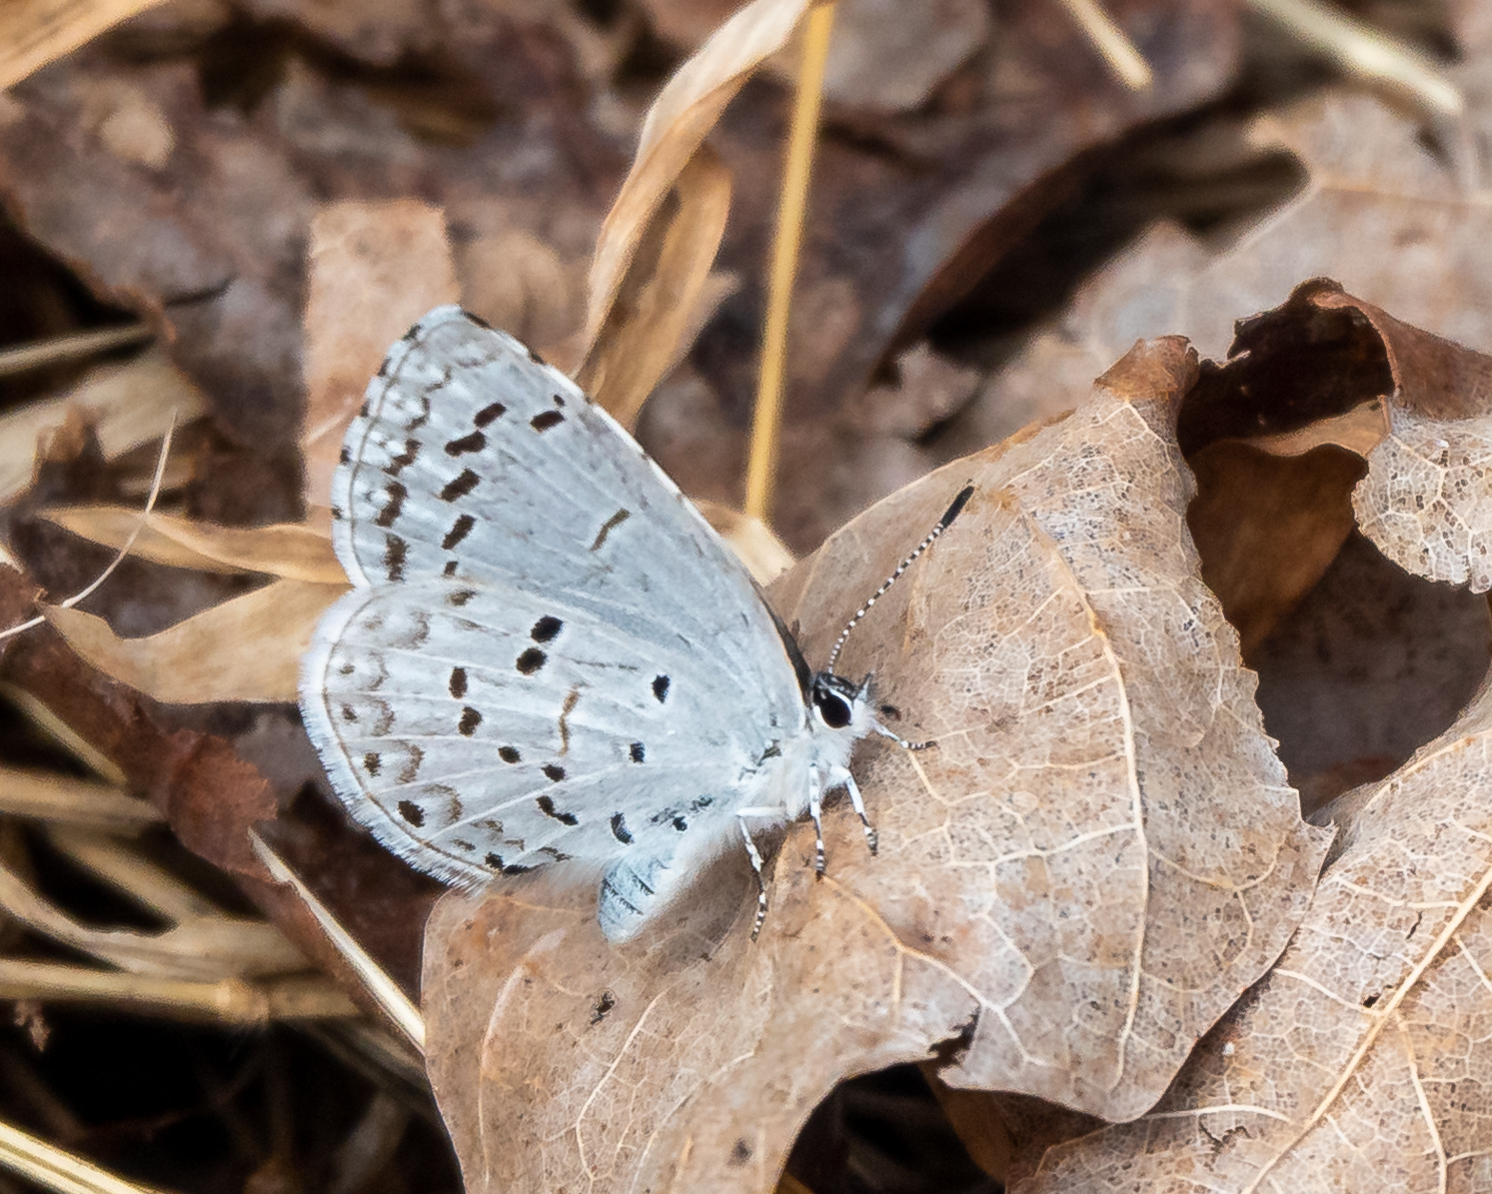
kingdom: Animalia
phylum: Arthropoda
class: Insecta
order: Lepidoptera
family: Lycaenidae
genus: Celastrina
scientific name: Celastrina ladon
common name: Spring azure
